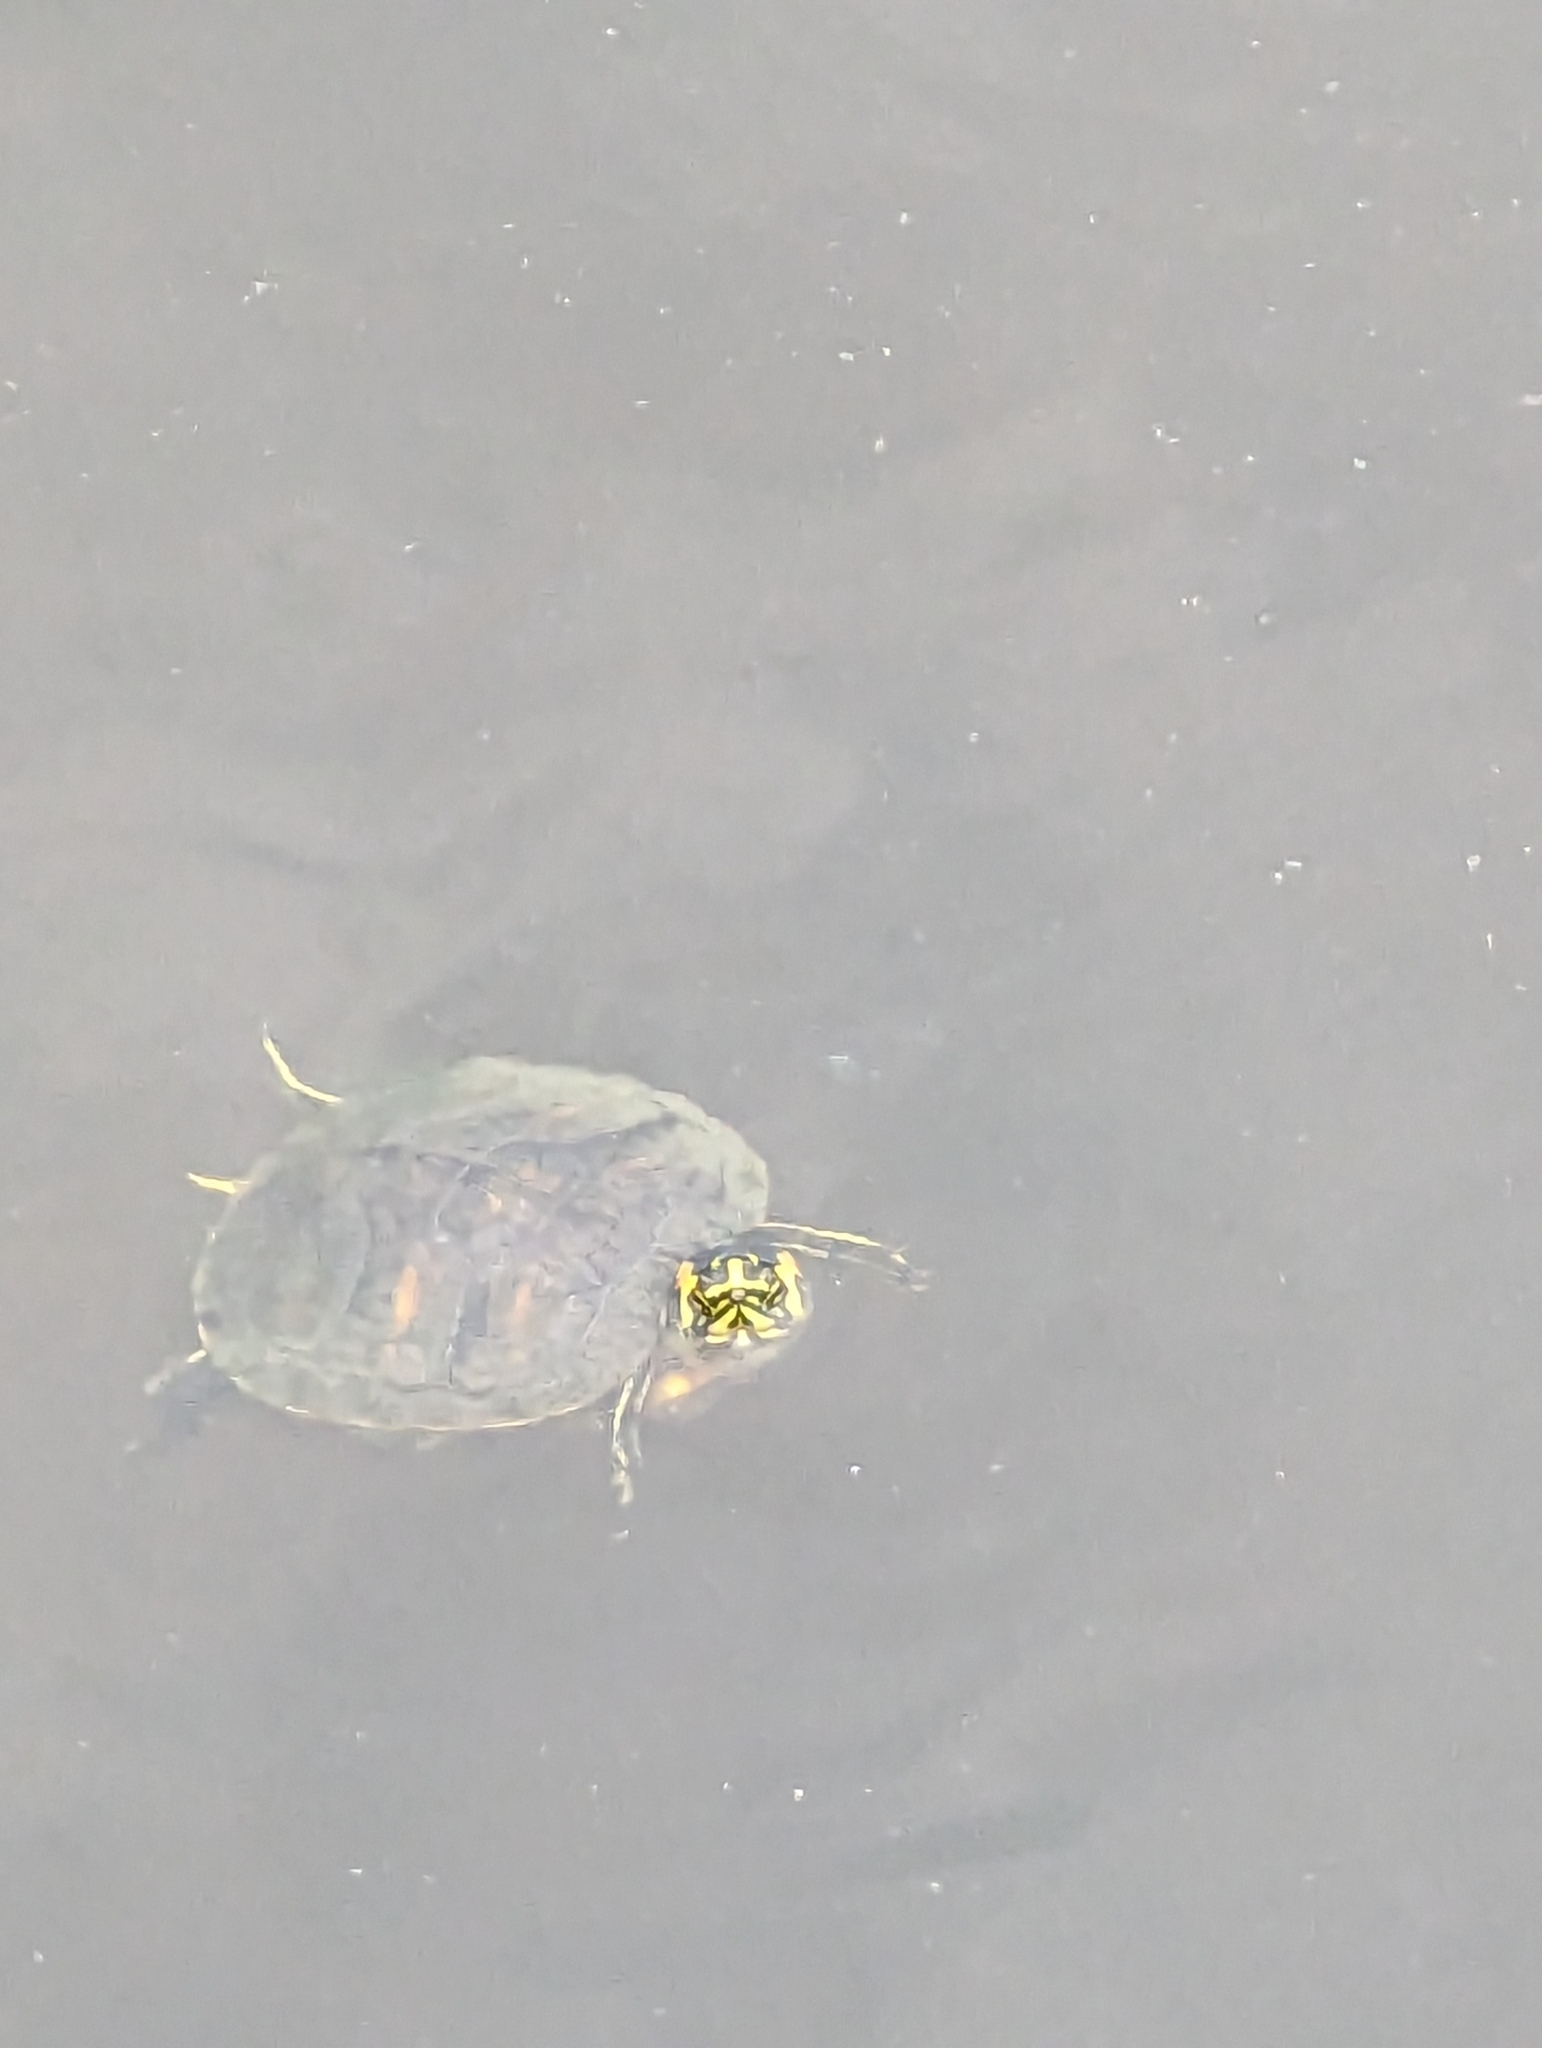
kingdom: Animalia
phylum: Chordata
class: Testudines
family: Emydidae
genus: Trachemys
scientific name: Trachemys scripta
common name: Slider
